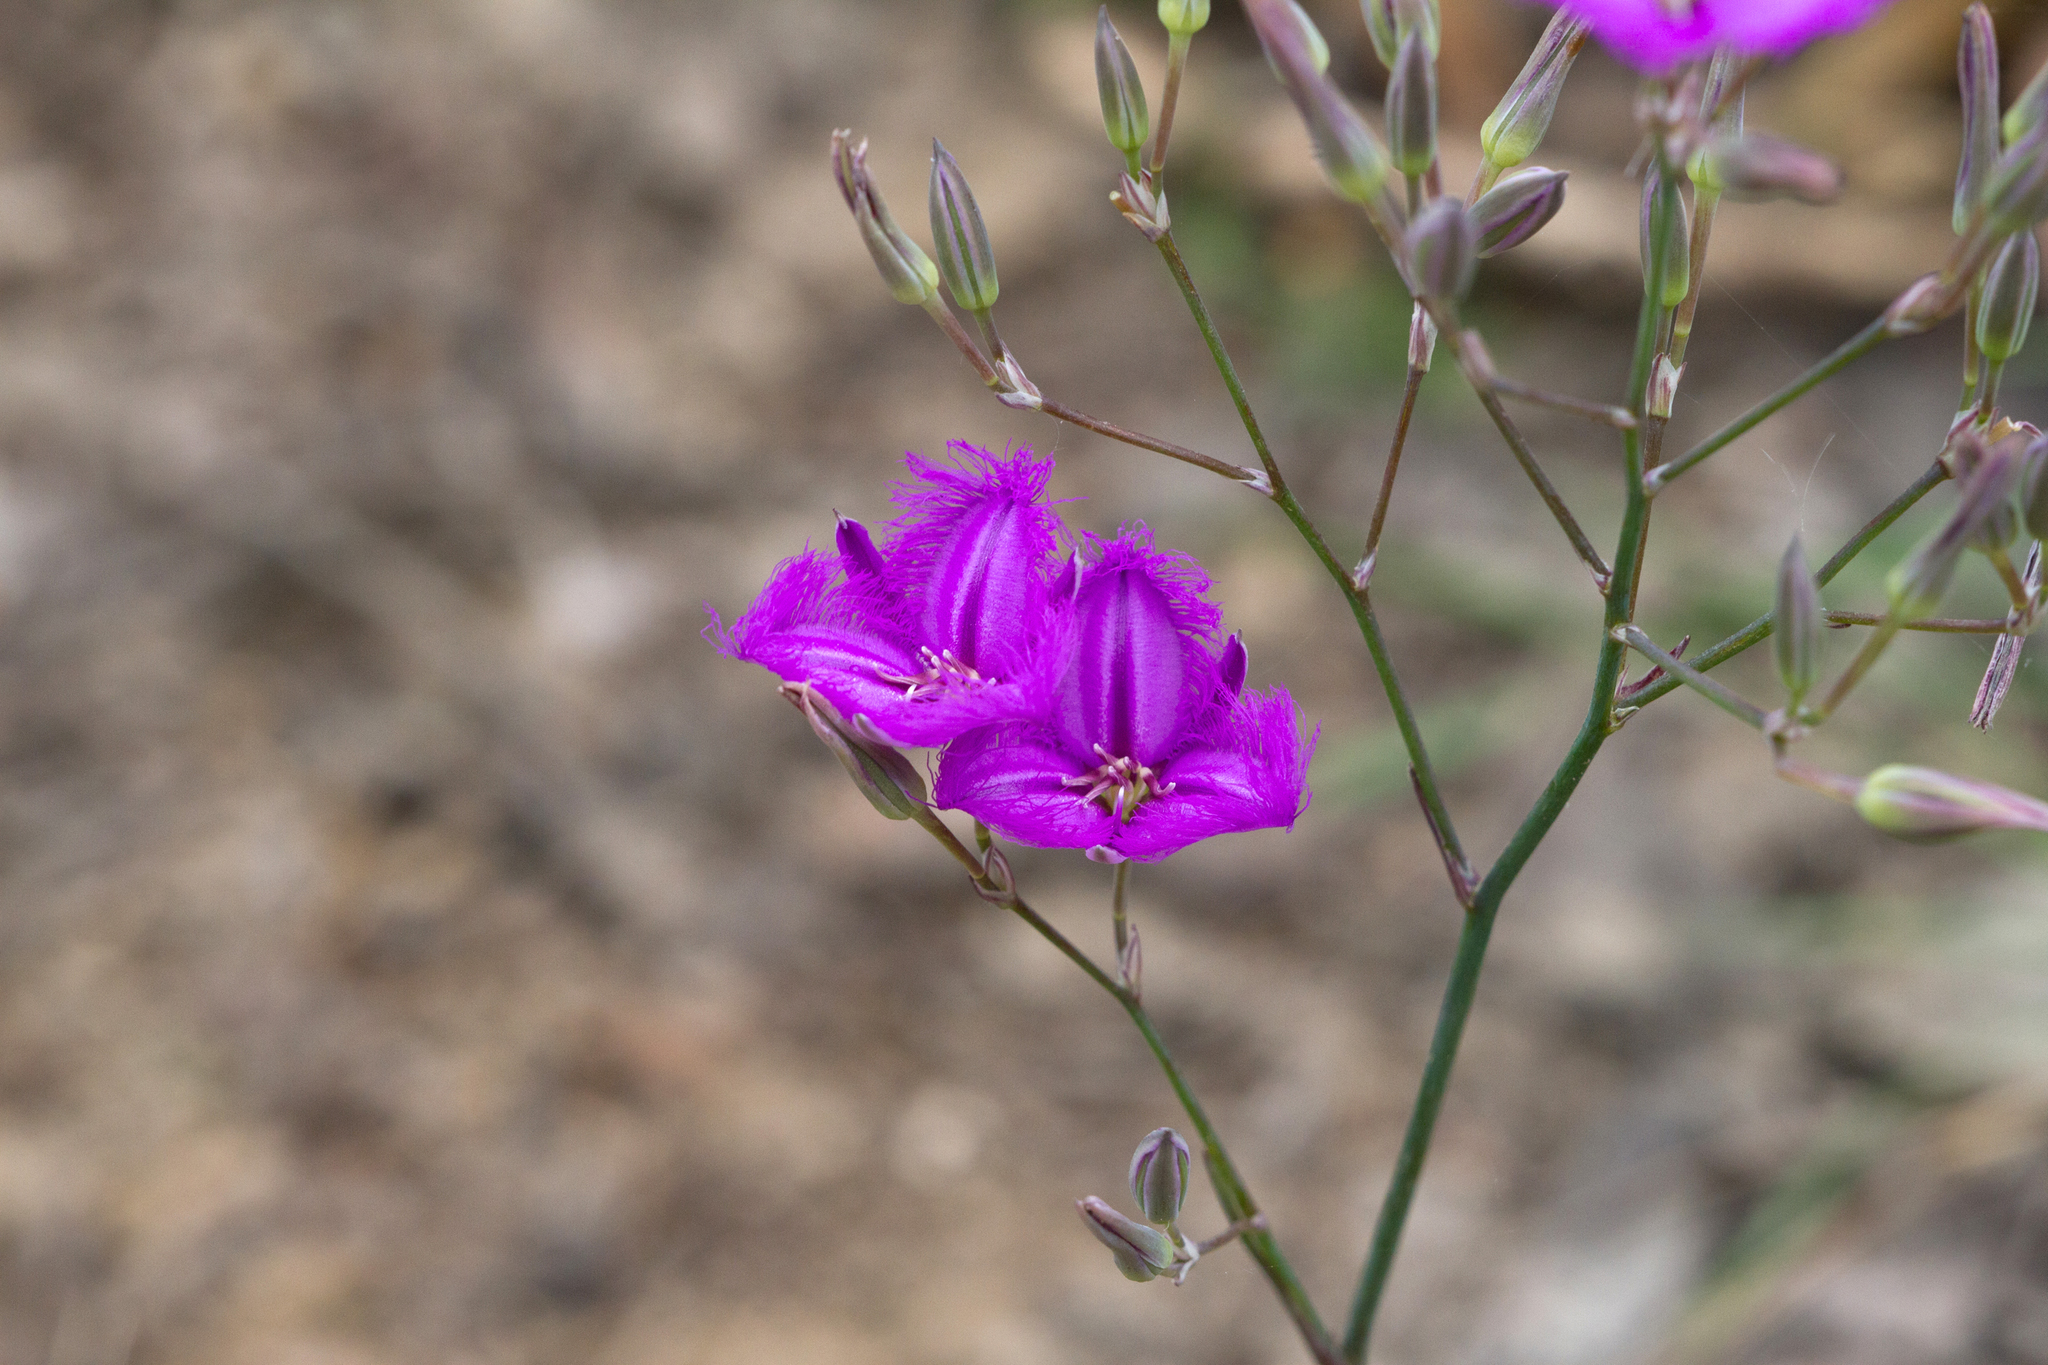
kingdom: Plantae
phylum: Tracheophyta
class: Liliopsida
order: Asparagales
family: Asparagaceae
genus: Thysanotus
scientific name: Thysanotus tuberosus
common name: Common fringed-lily
